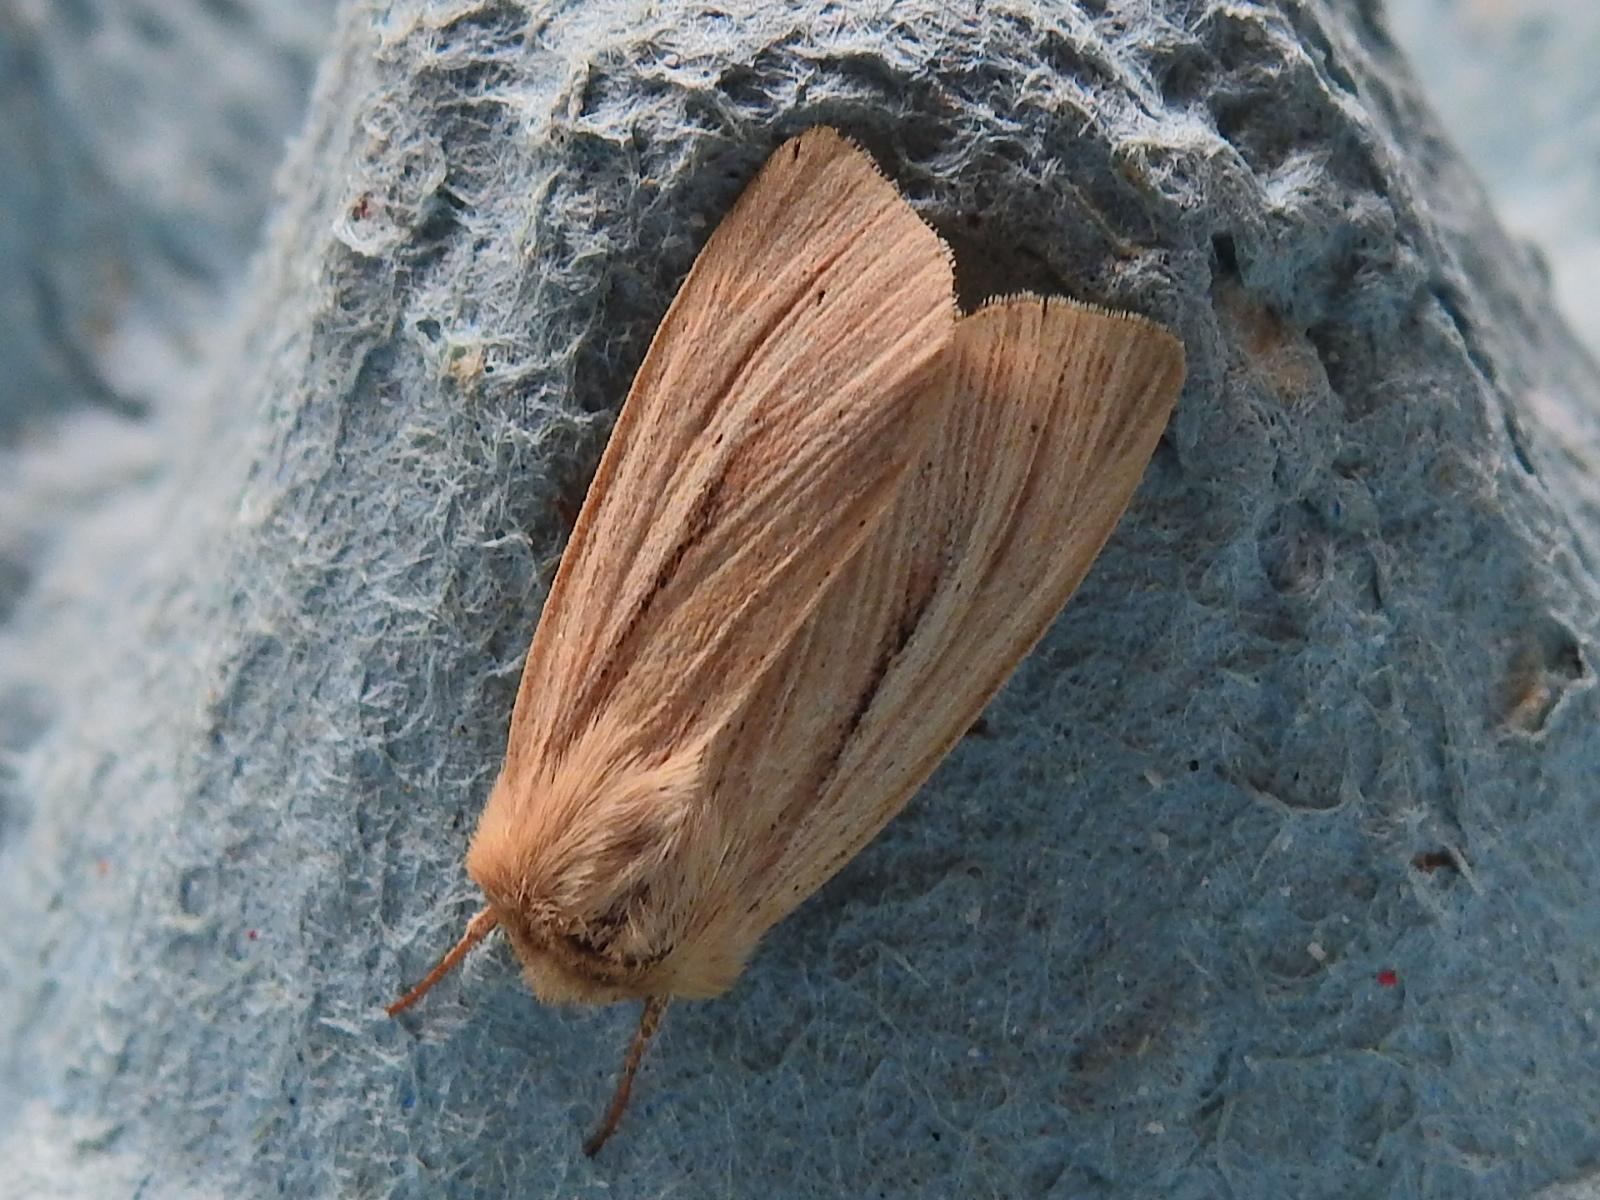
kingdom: Animalia
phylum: Arthropoda
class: Insecta
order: Lepidoptera
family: Noctuidae
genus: Mythimna
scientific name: Mythimna pallens
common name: Common wainscot
